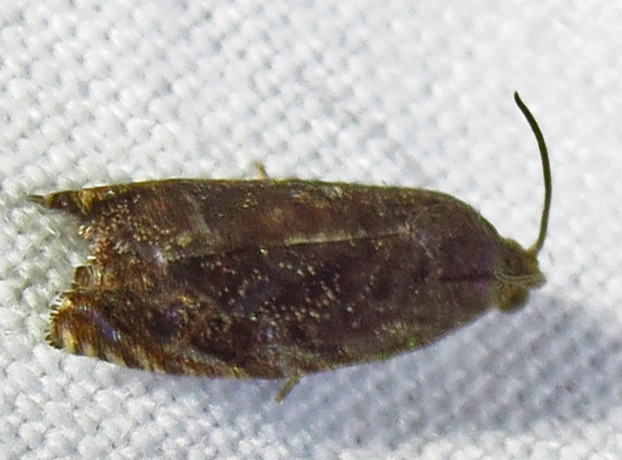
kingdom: Animalia
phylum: Arthropoda
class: Insecta
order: Lepidoptera
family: Tortricidae
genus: Cydia
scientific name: Cydia caryana
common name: Hickory shuckworm moth
